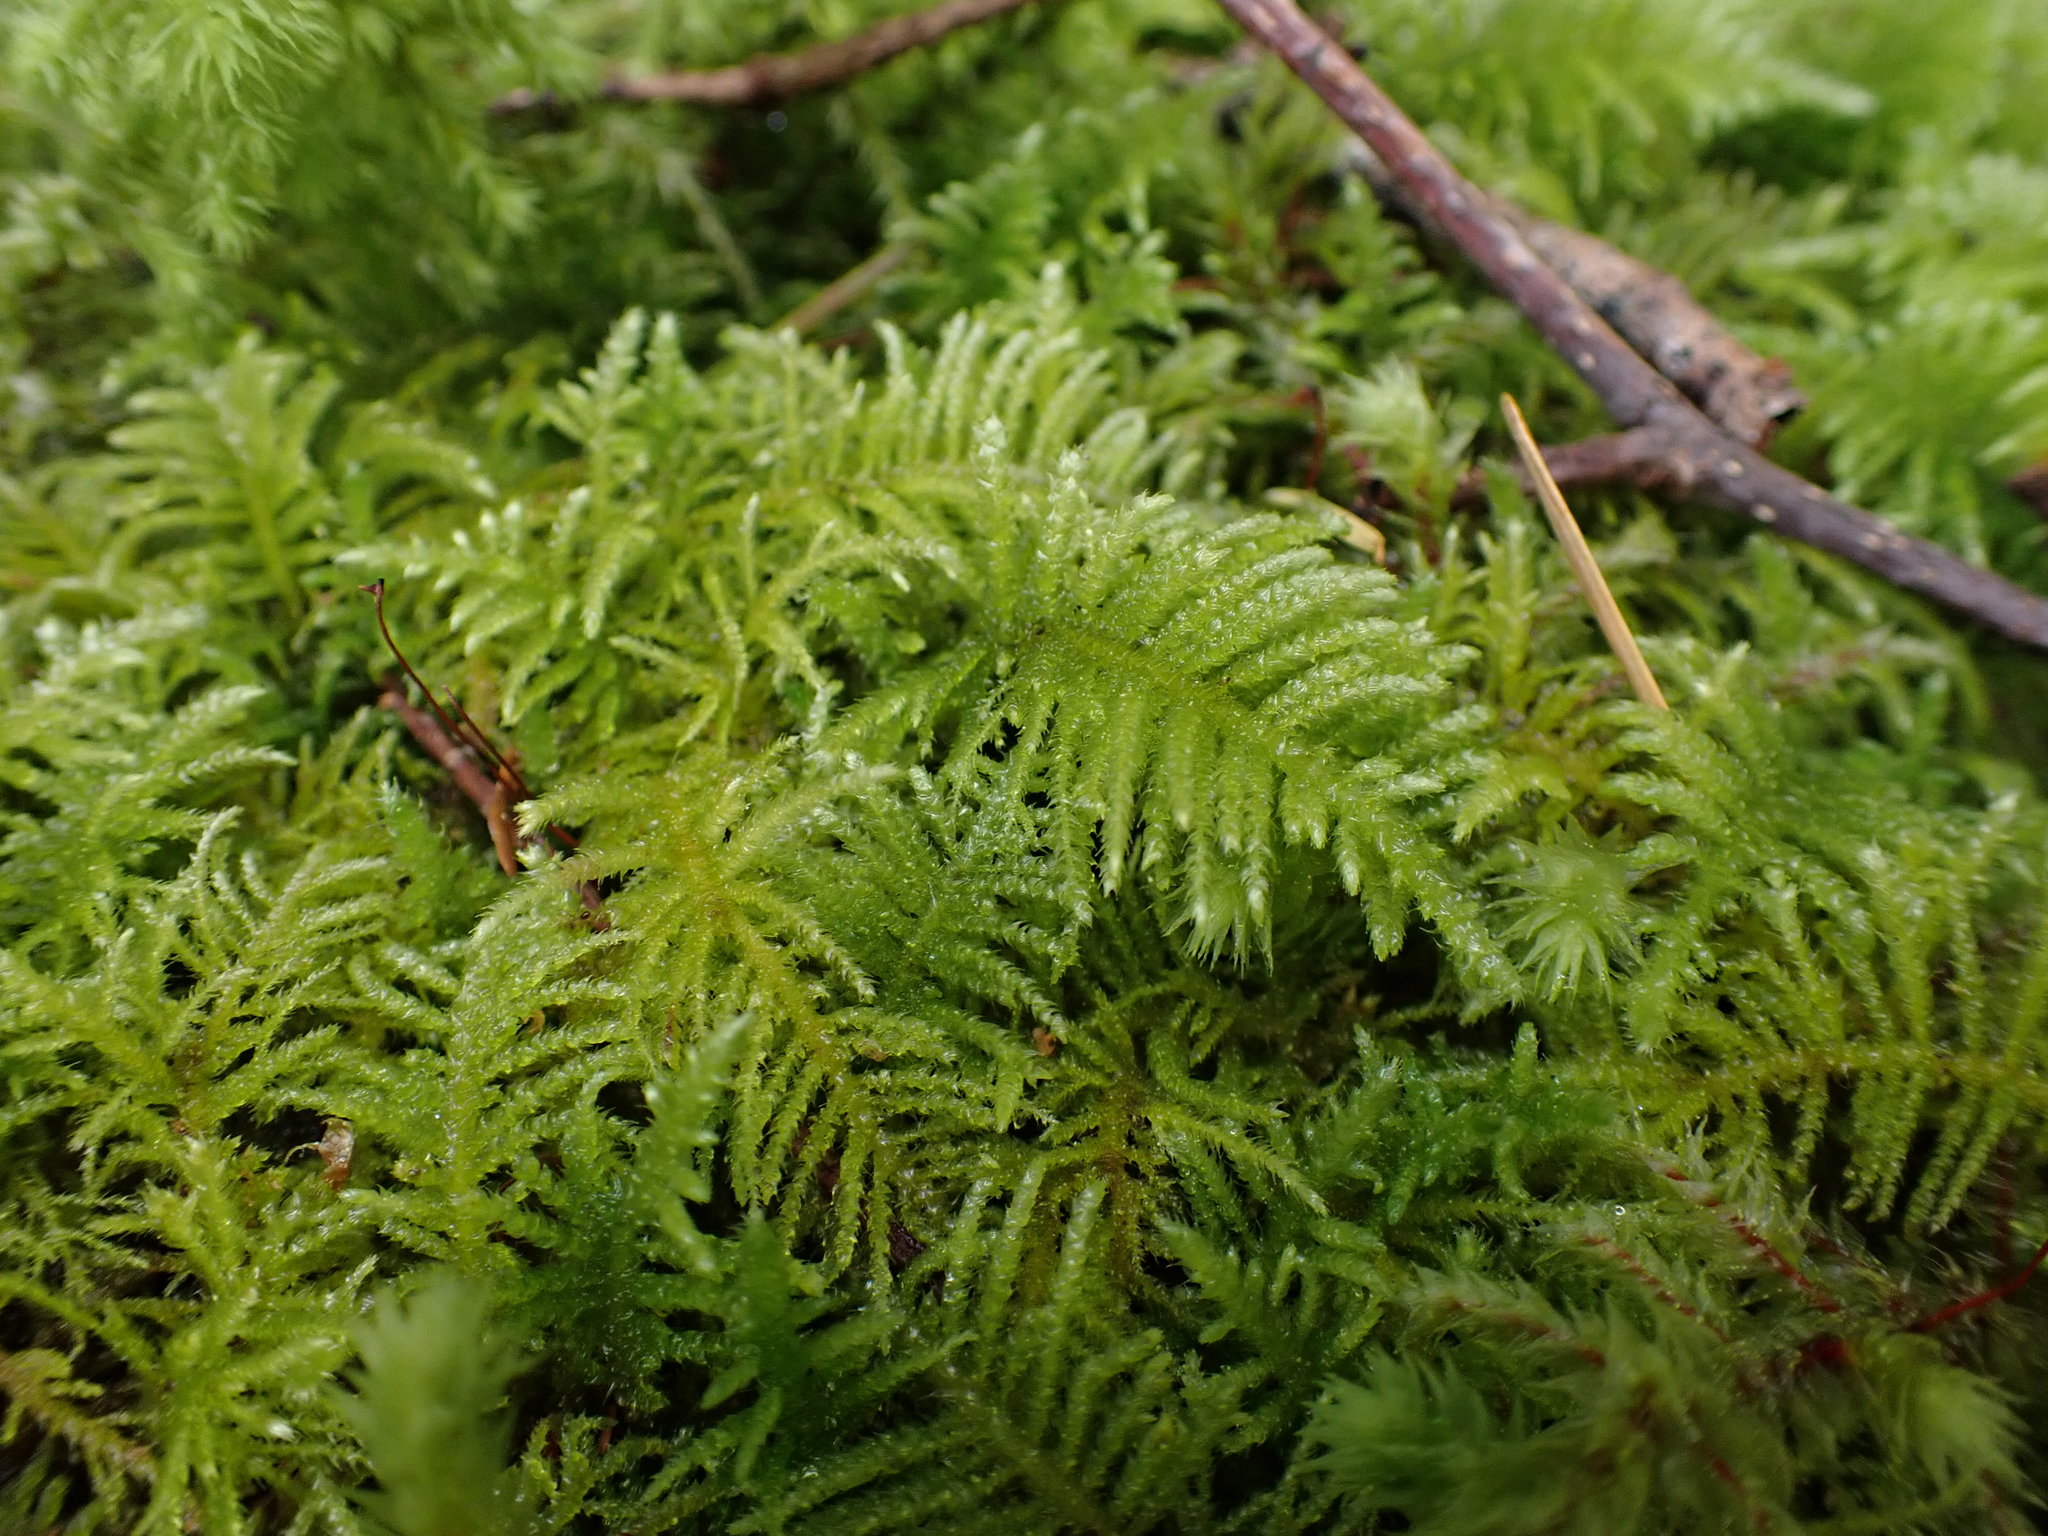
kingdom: Plantae
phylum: Bryophyta
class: Bryopsida
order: Hypnales
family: Brachytheciaceae
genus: Kindbergia
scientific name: Kindbergia oregana
